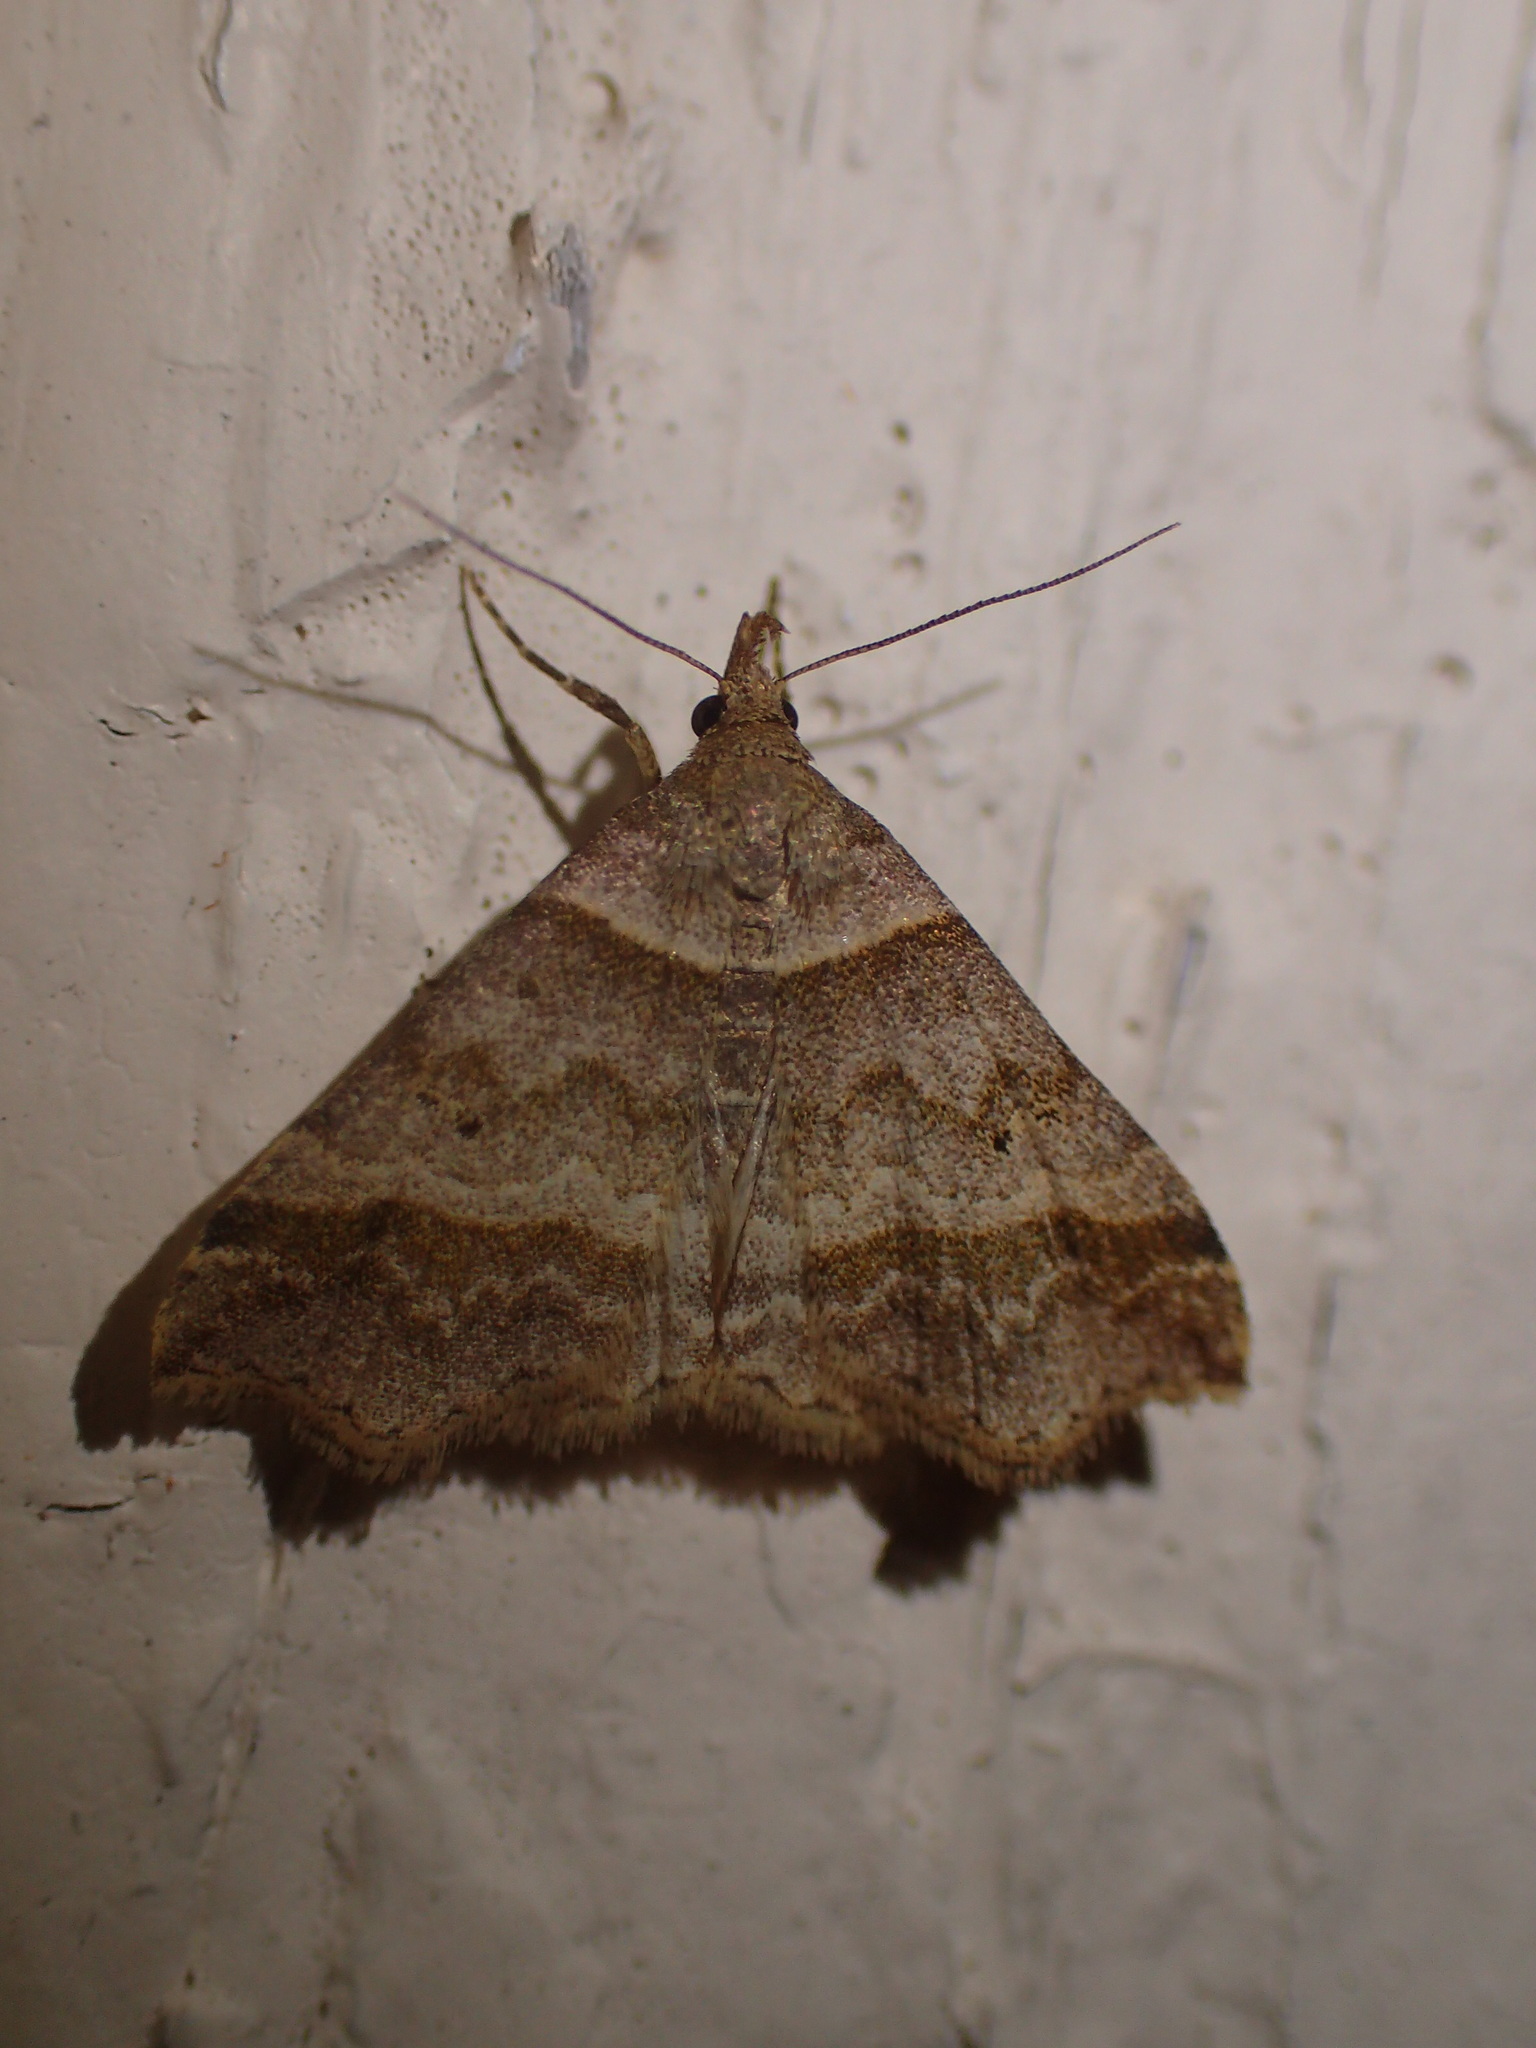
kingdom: Animalia
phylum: Arthropoda
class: Insecta
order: Lepidoptera
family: Erebidae
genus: Phaeolita
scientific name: Phaeolita pyramusalis
